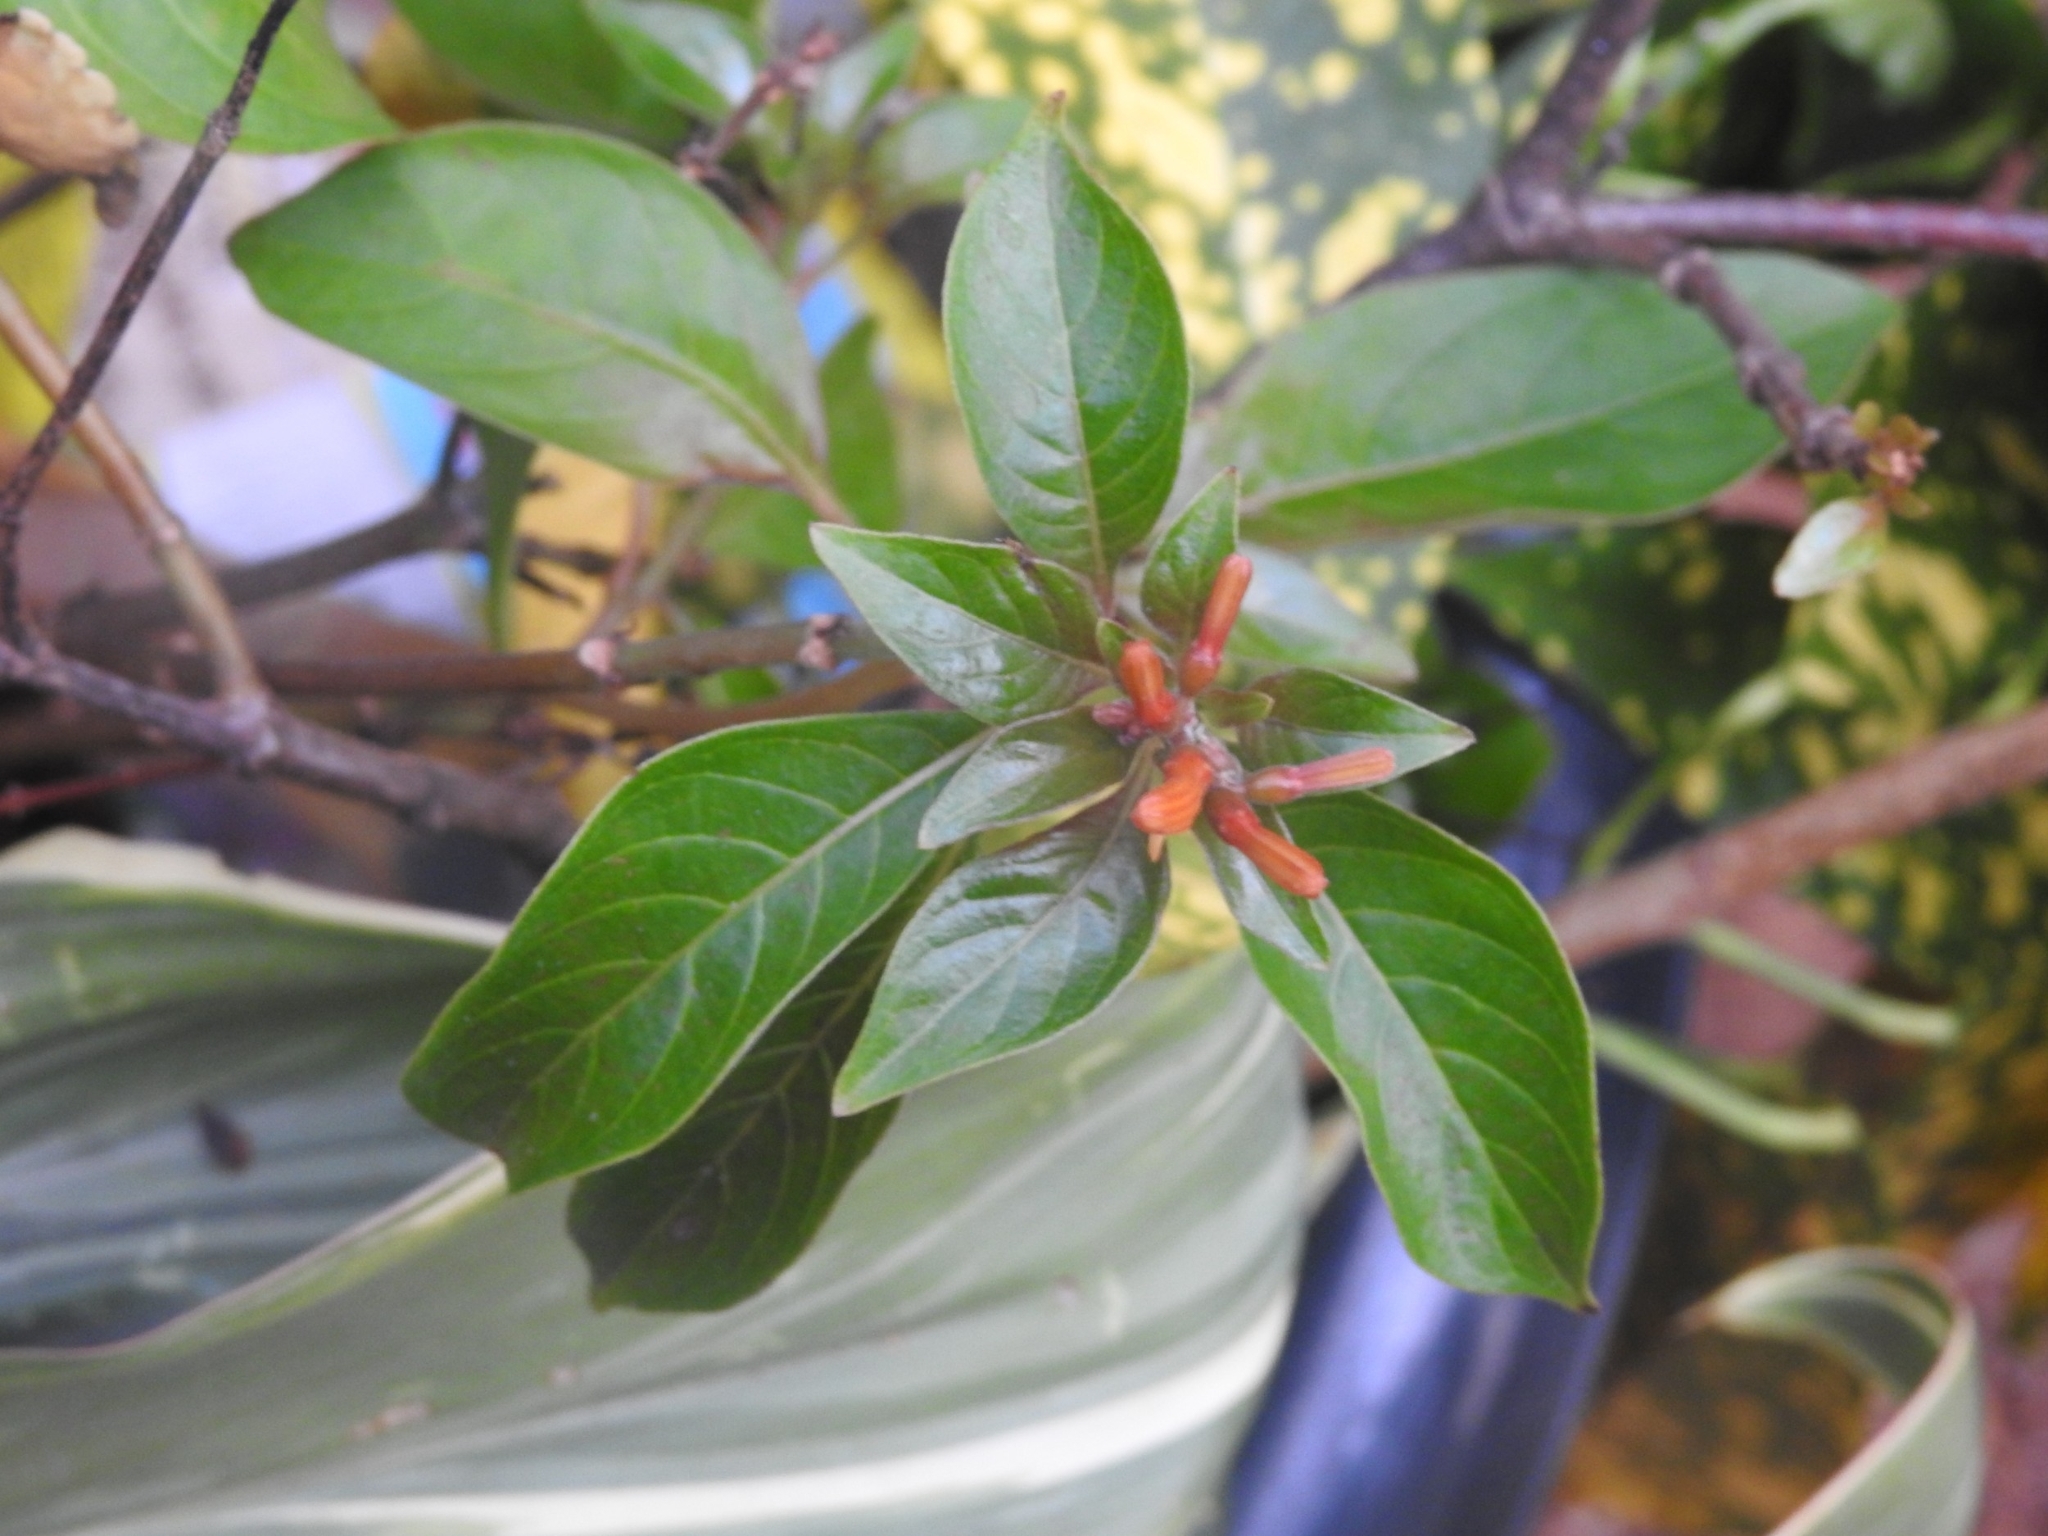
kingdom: Plantae
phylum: Tracheophyta
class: Magnoliopsida
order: Gentianales
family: Rubiaceae
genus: Hamelia
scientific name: Hamelia patens
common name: Redhead
